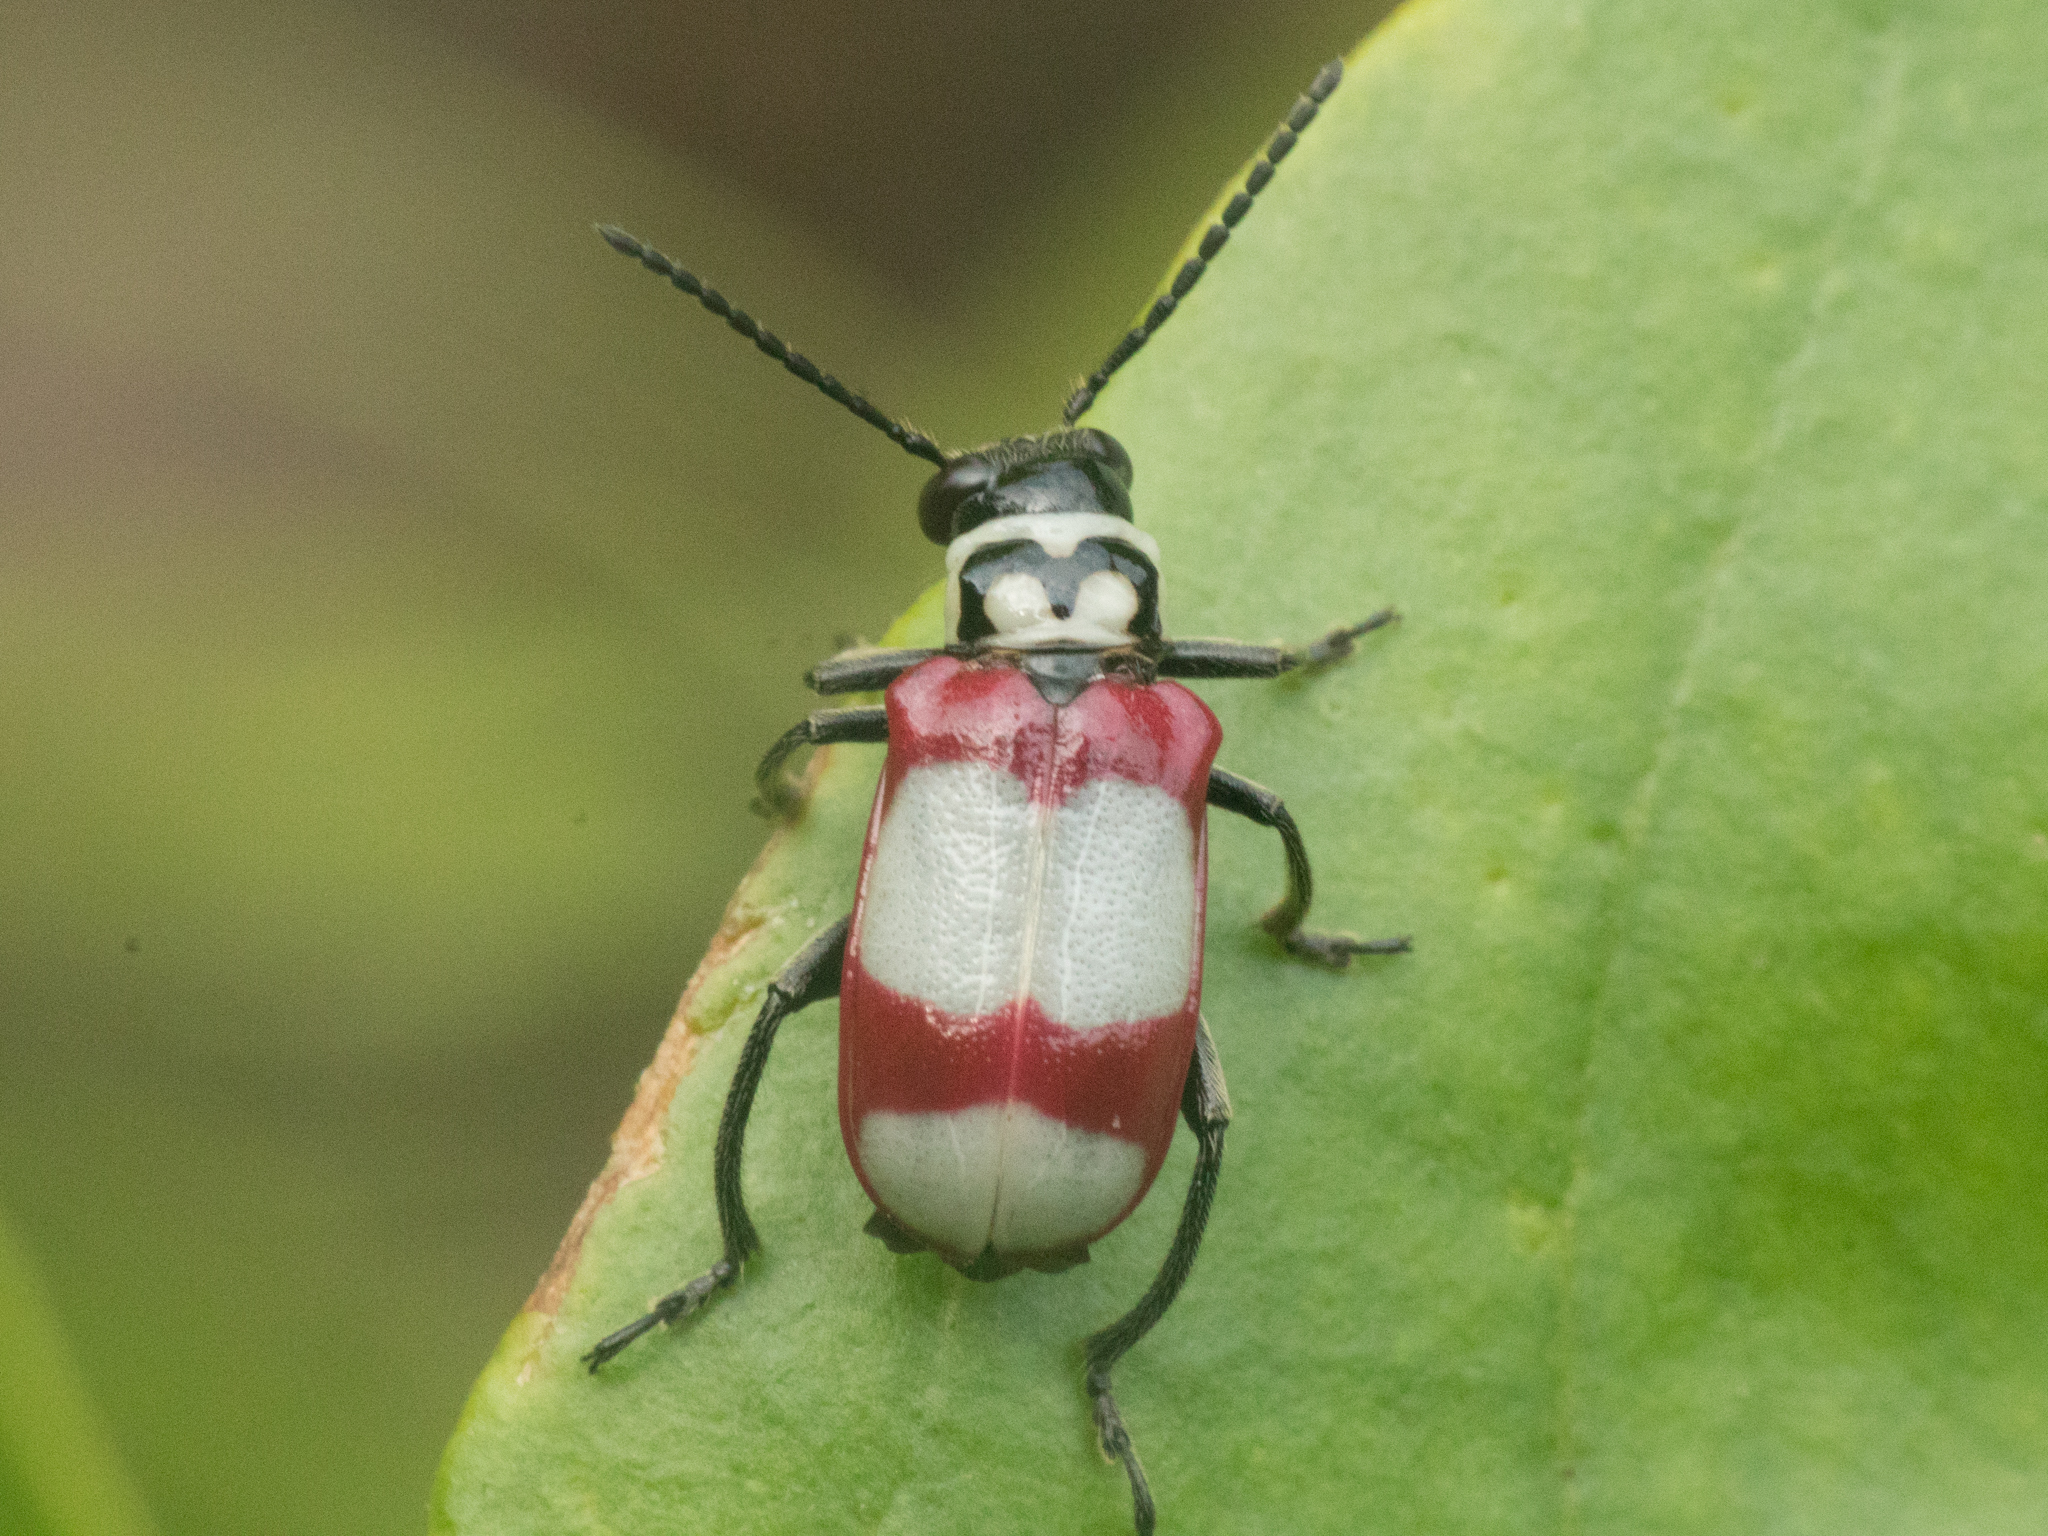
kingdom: Animalia
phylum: Arthropoda
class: Insecta
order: Coleoptera
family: Megalopodidae
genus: Agathomerus
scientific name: Agathomerus flavomaculatus
